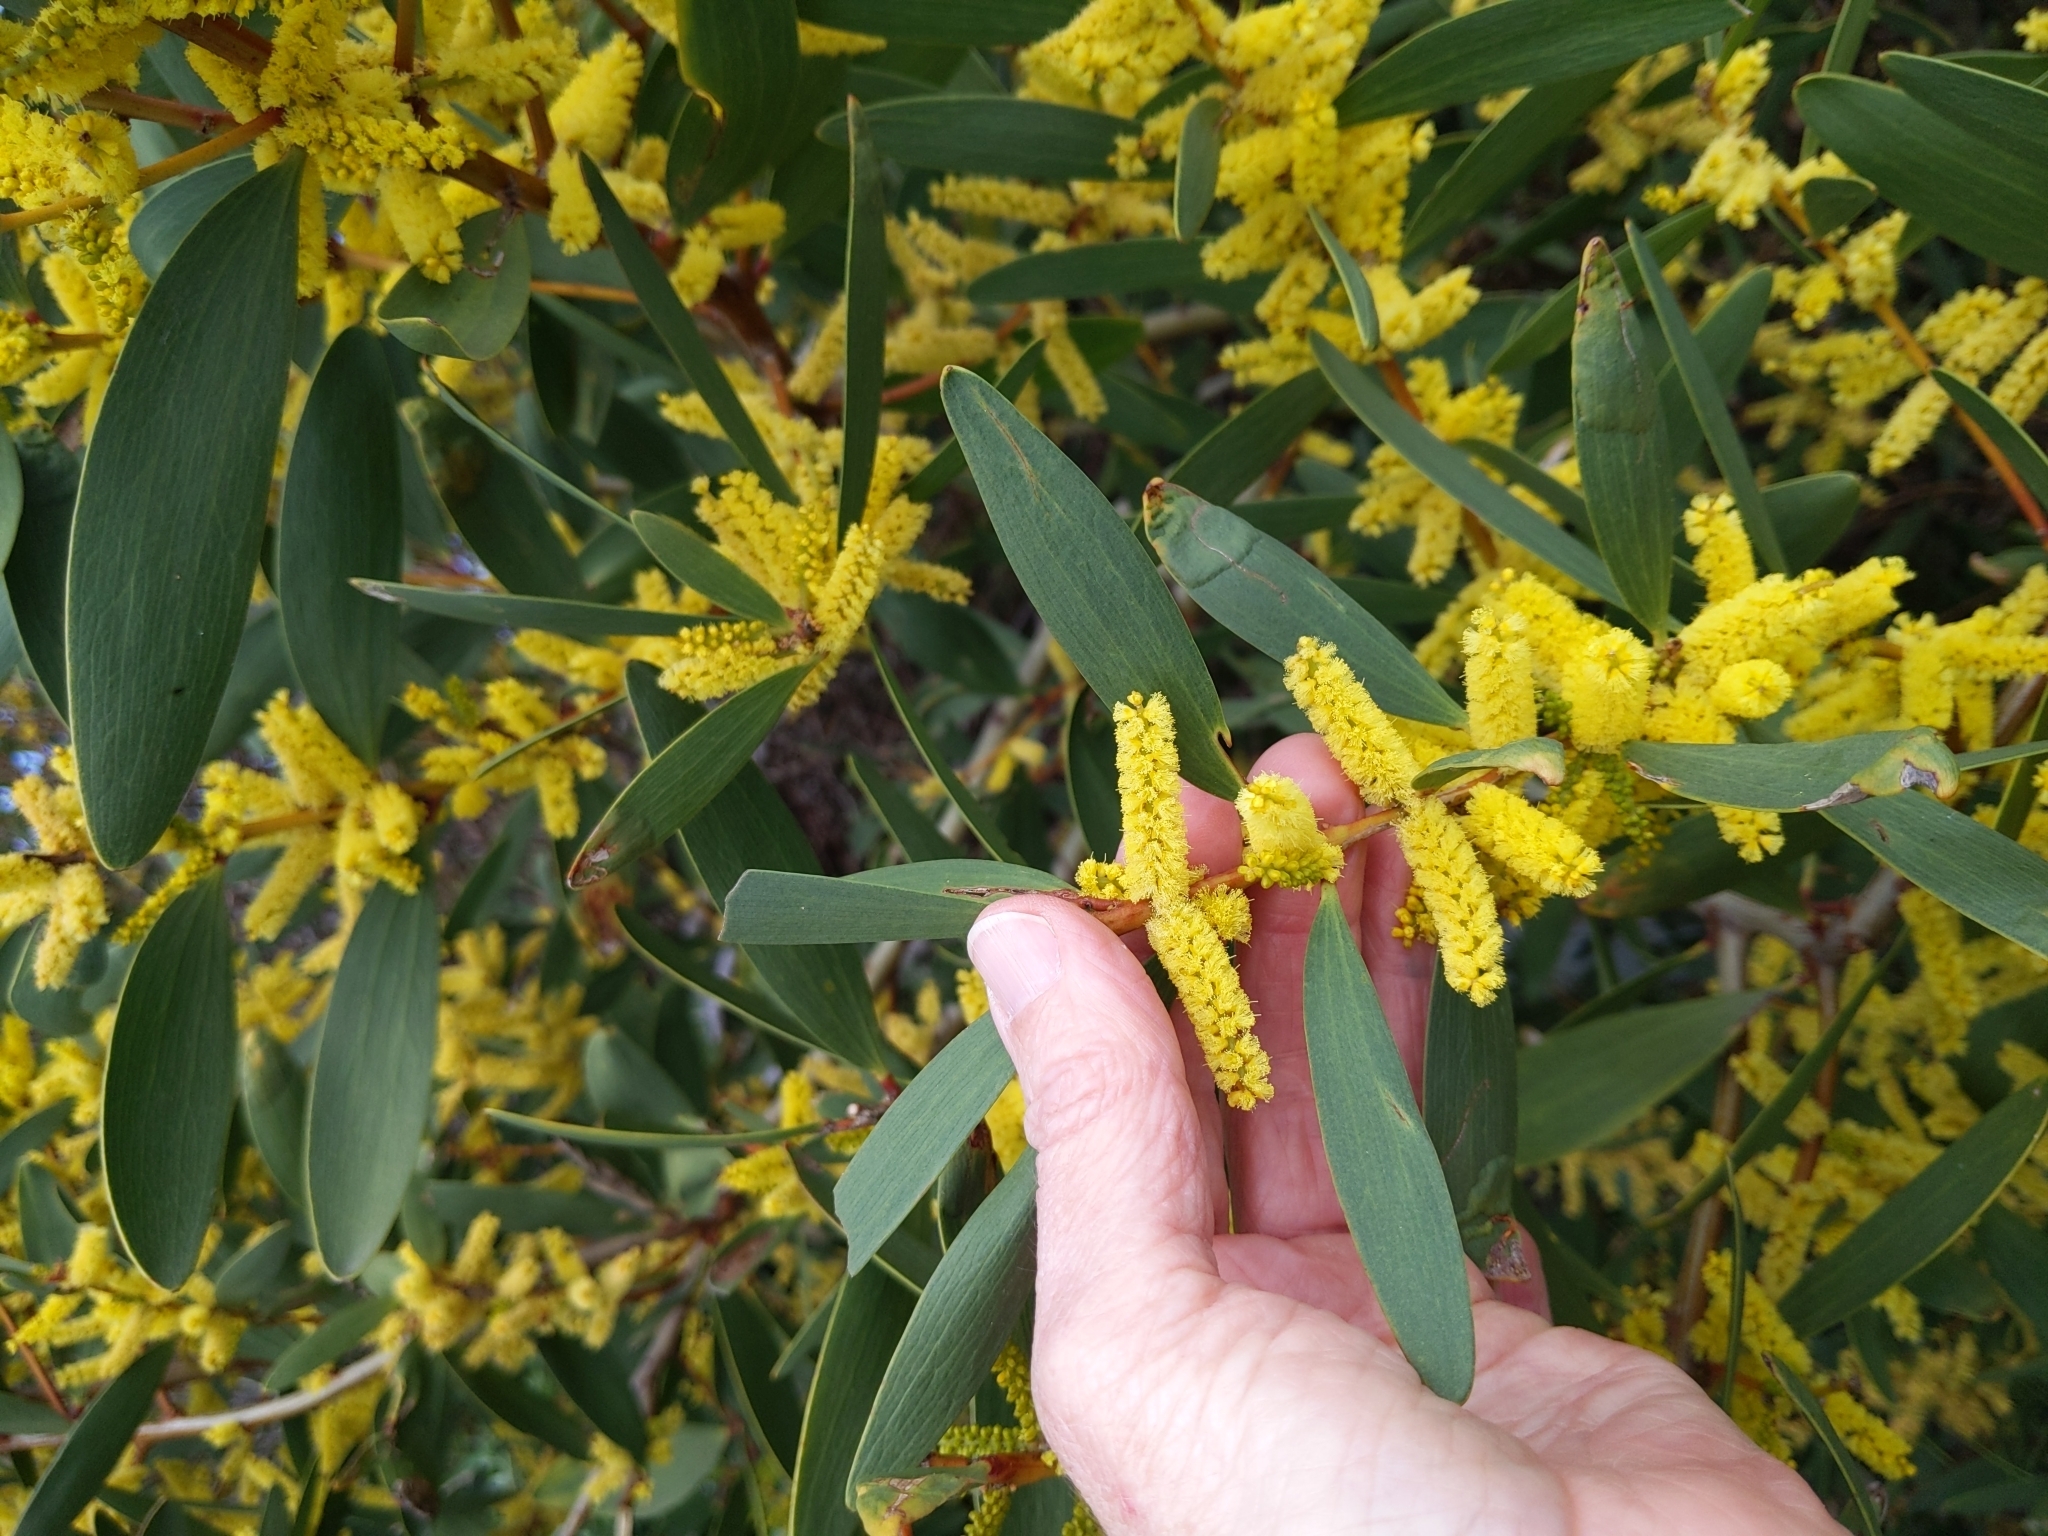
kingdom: Plantae
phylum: Tracheophyta
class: Magnoliopsida
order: Fabales
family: Fabaceae
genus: Acacia
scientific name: Acacia longifolia
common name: Sydney golden wattle
